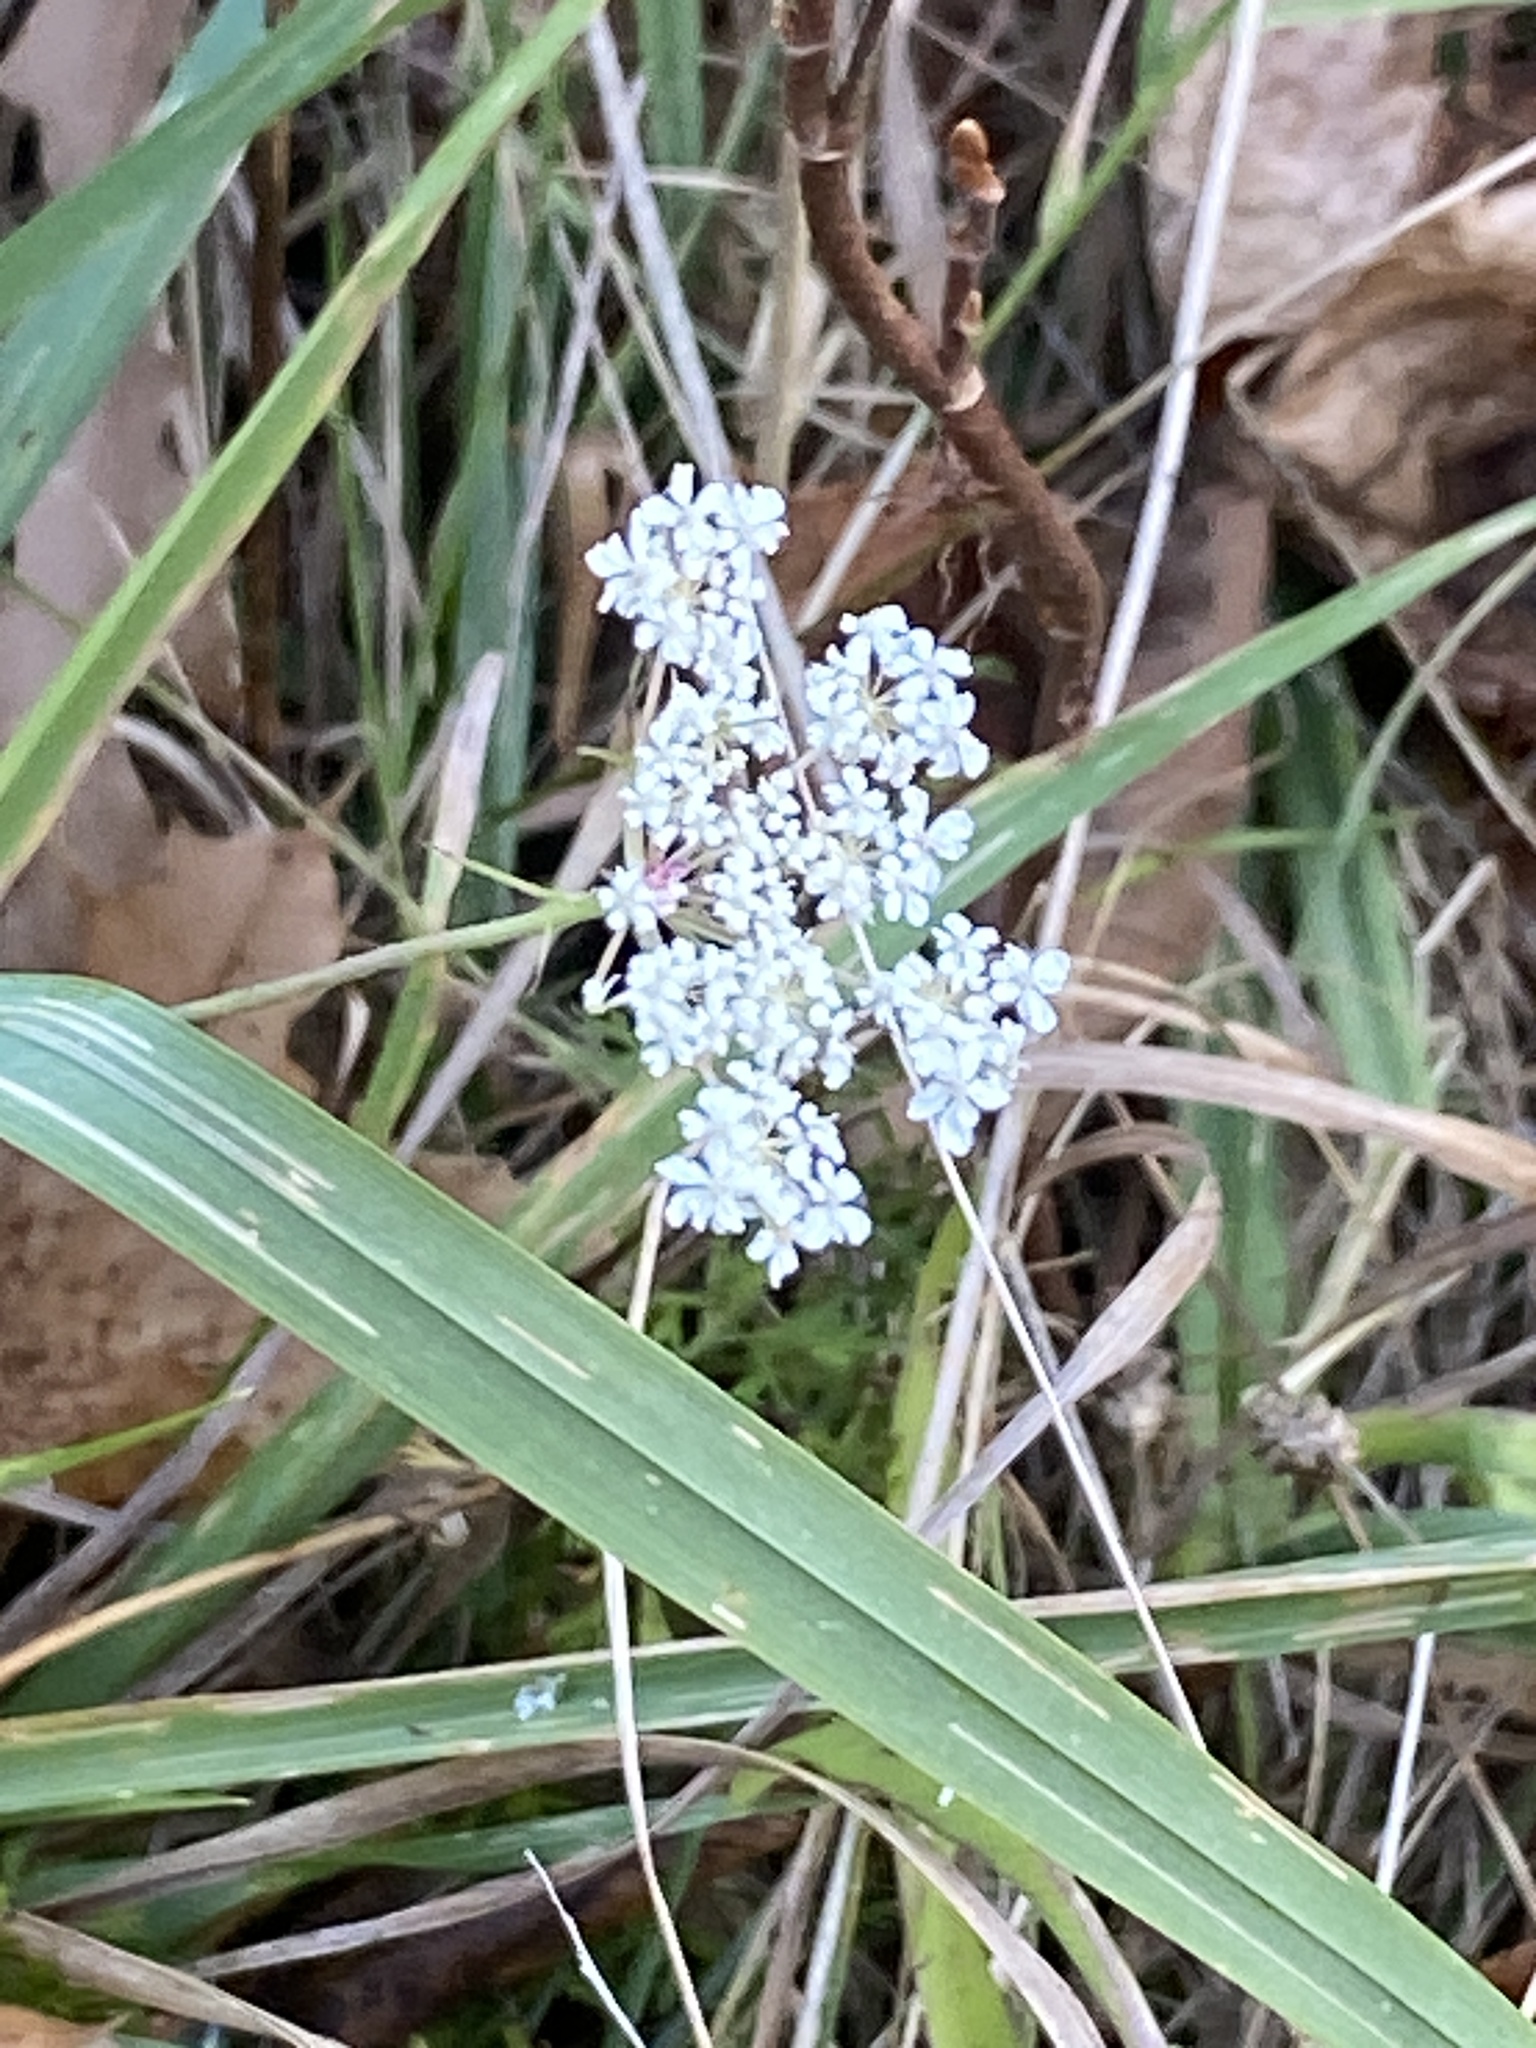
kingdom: Plantae
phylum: Tracheophyta
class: Magnoliopsida
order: Apiales
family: Apiaceae
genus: Daucus
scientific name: Daucus carota
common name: Wild carrot
